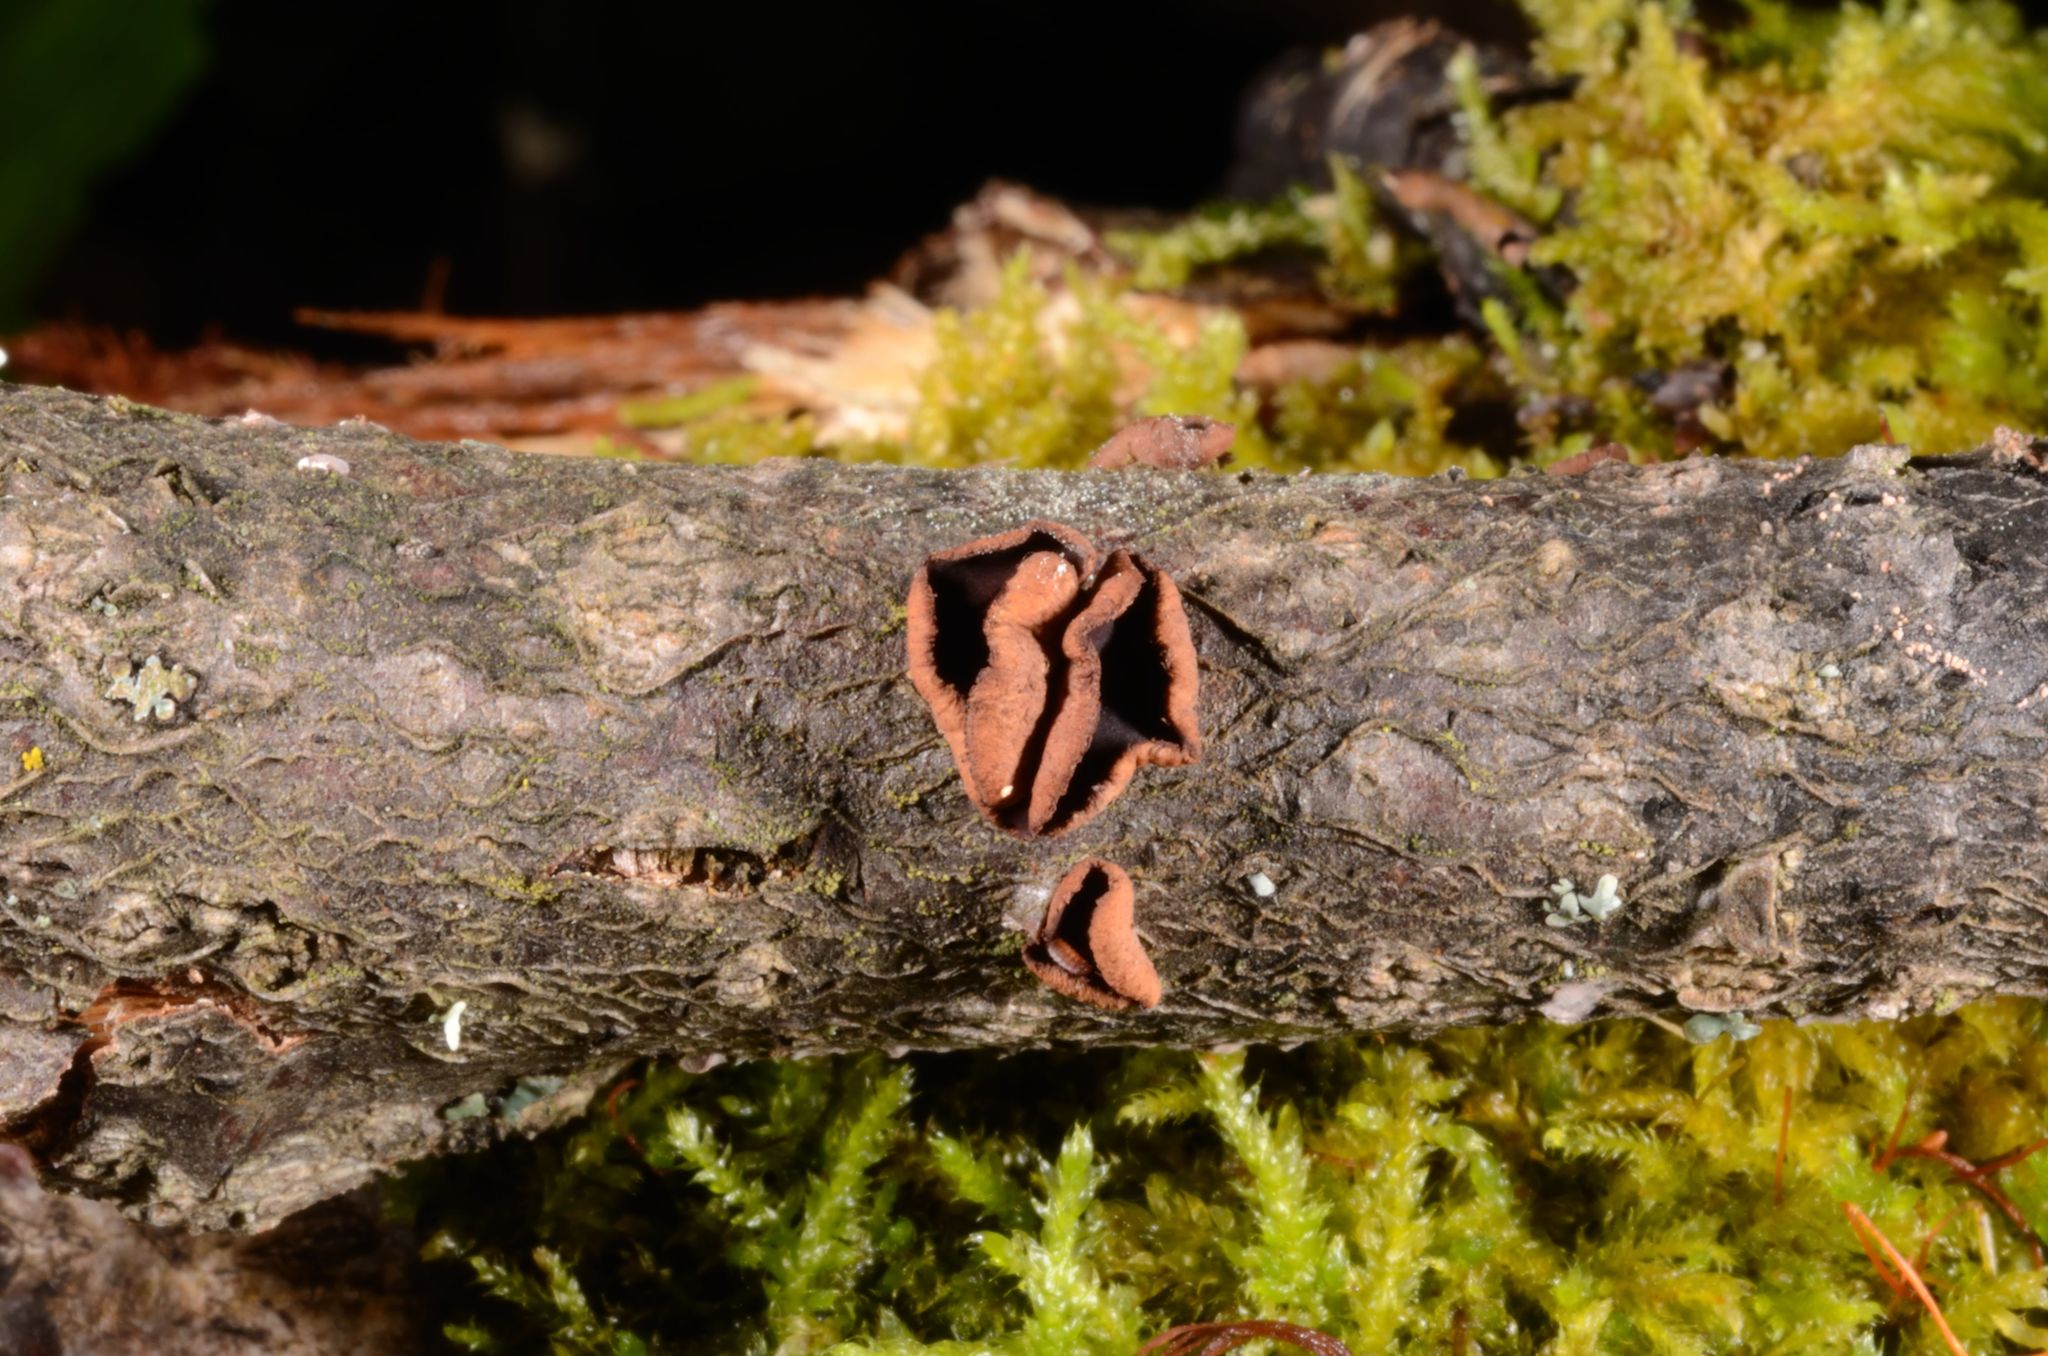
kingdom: Fungi
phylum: Ascomycota
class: Leotiomycetes
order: Helotiales
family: Cenangiaceae
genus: Encoelia
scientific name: Encoelia tiliacea
